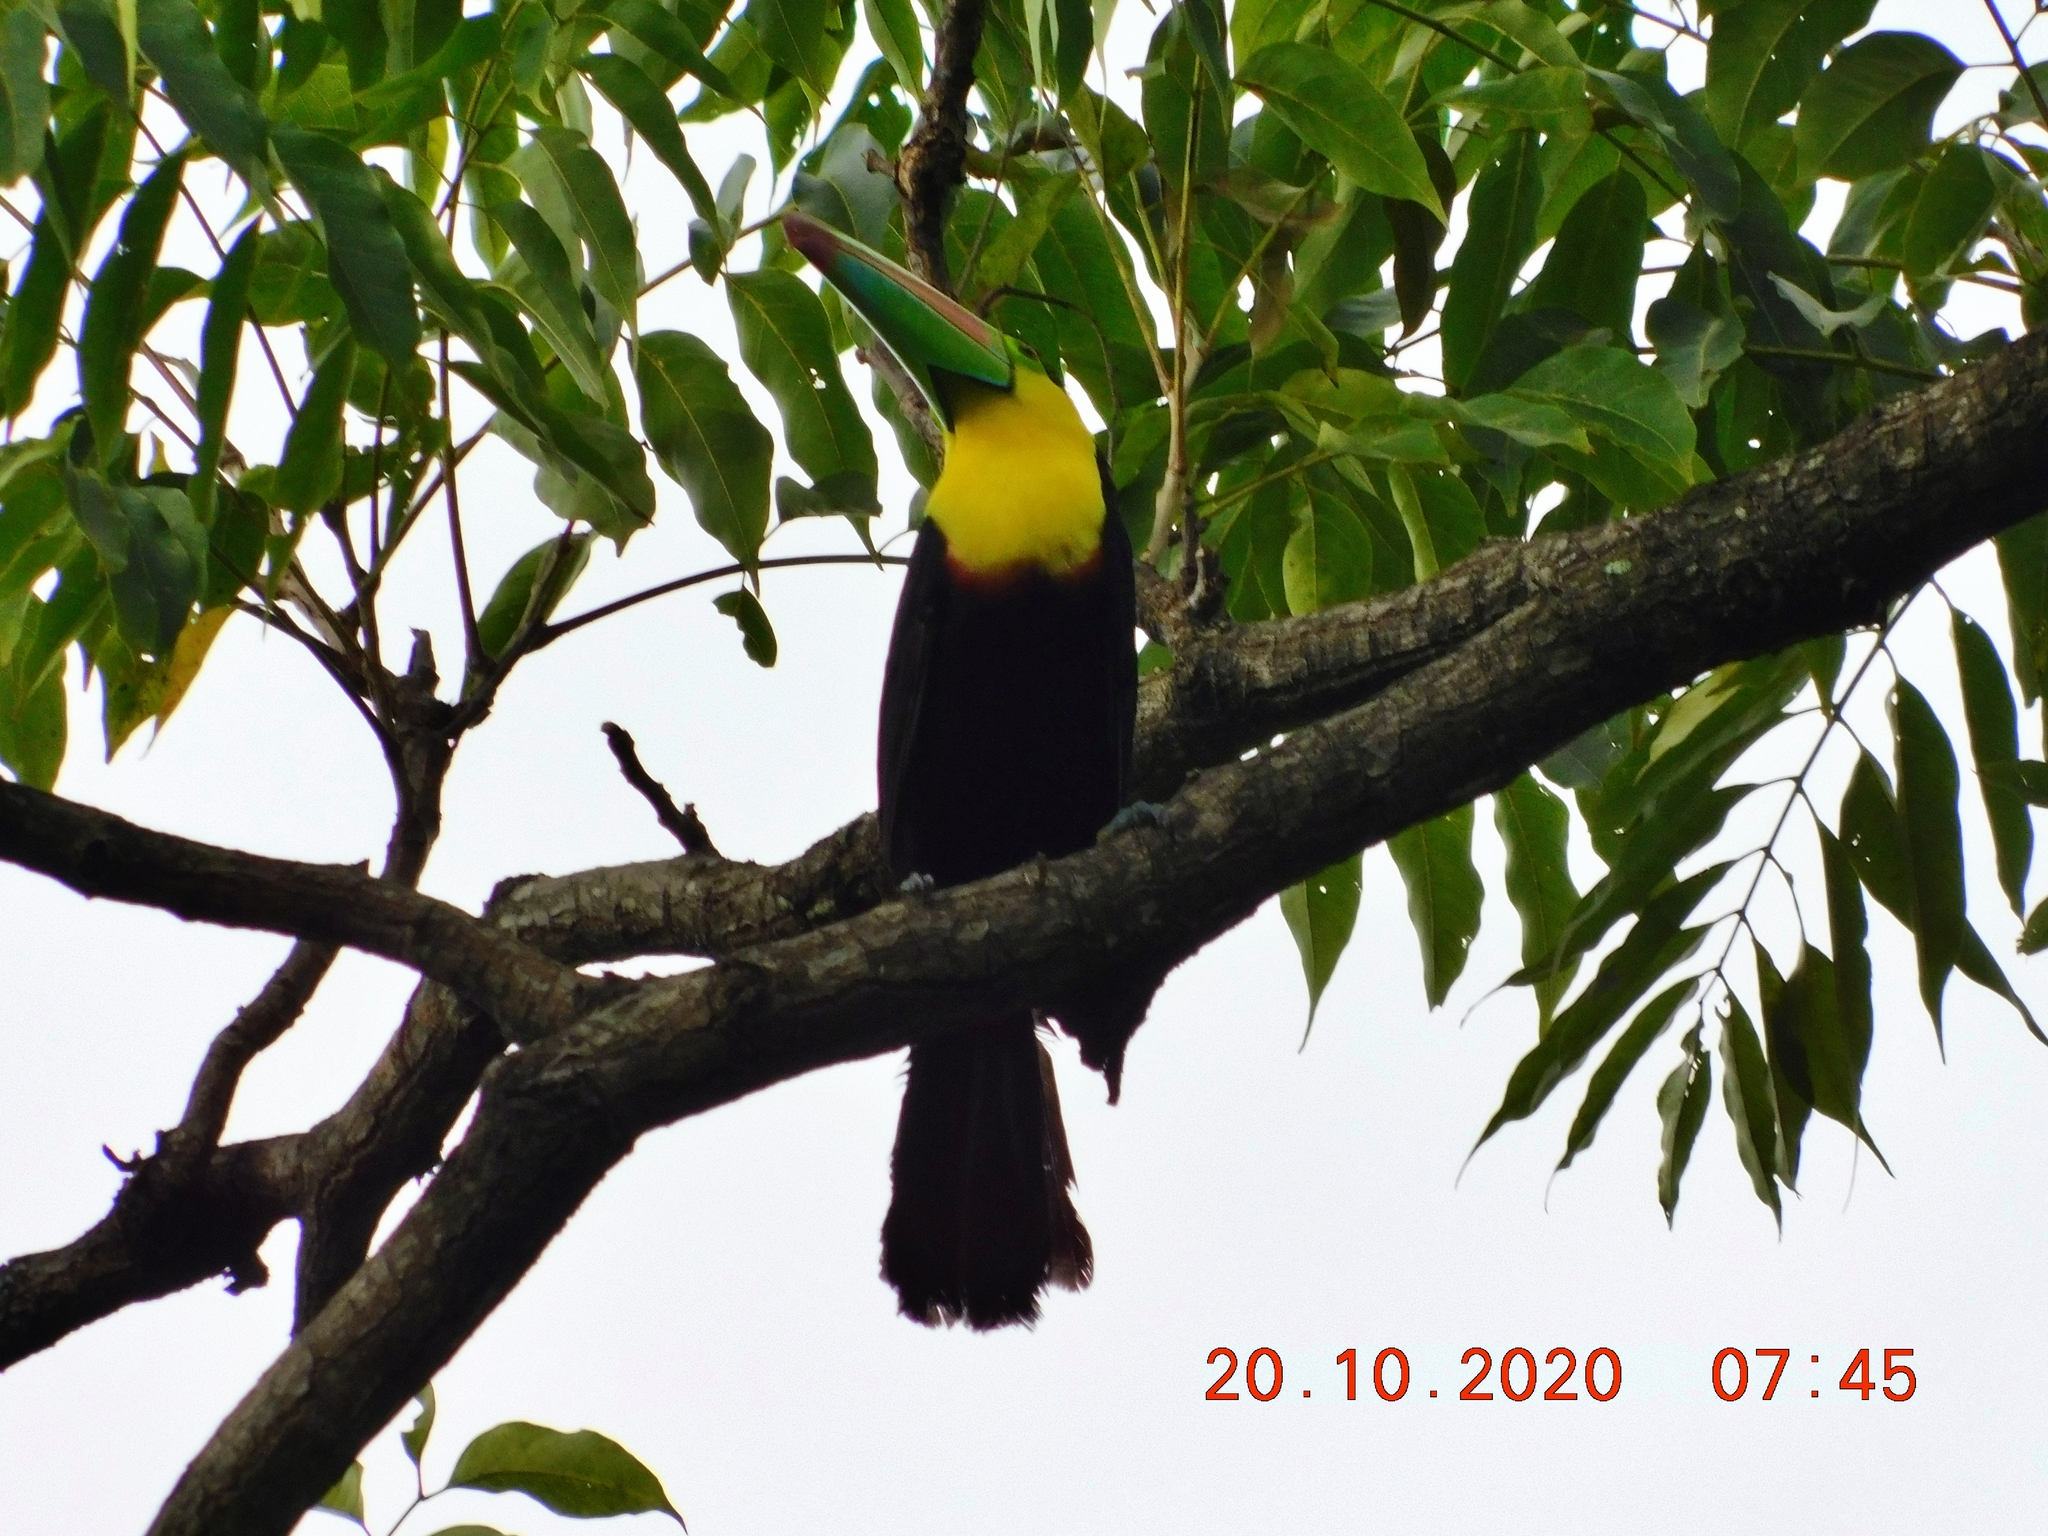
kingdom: Animalia
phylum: Chordata
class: Aves
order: Piciformes
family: Ramphastidae
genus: Ramphastos
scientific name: Ramphastos sulfuratus
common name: Keel-billed toucan
